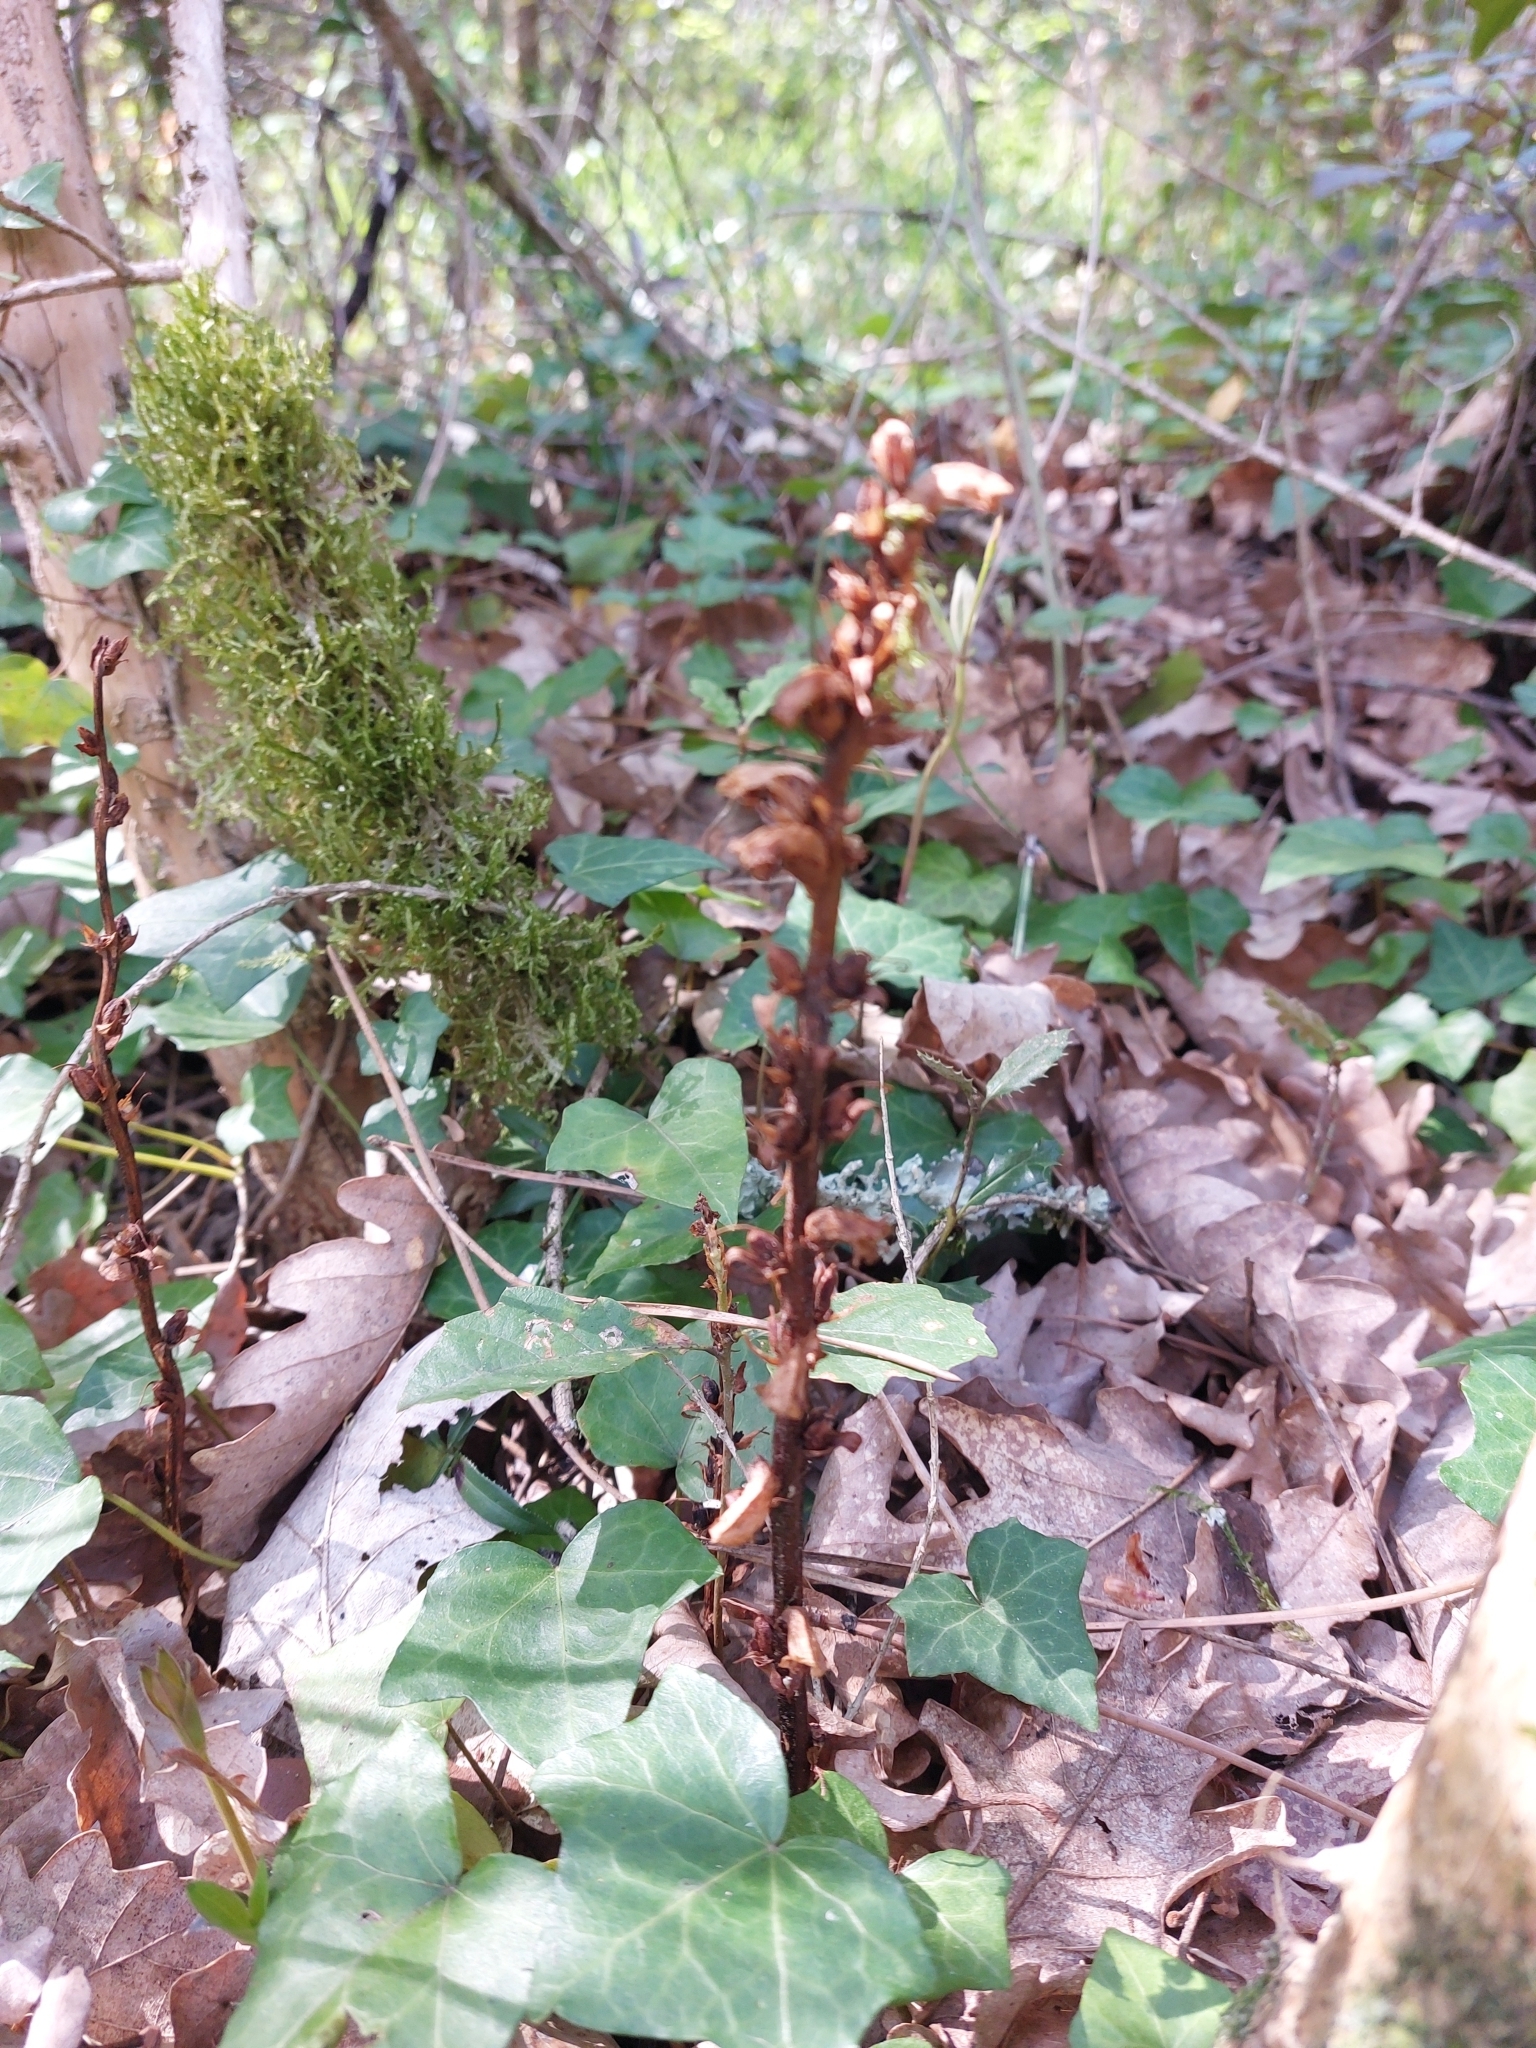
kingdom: Plantae
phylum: Tracheophyta
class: Magnoliopsida
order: Lamiales
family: Orobanchaceae
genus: Orobanche
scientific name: Orobanche hederae
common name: Ivy broomrape
